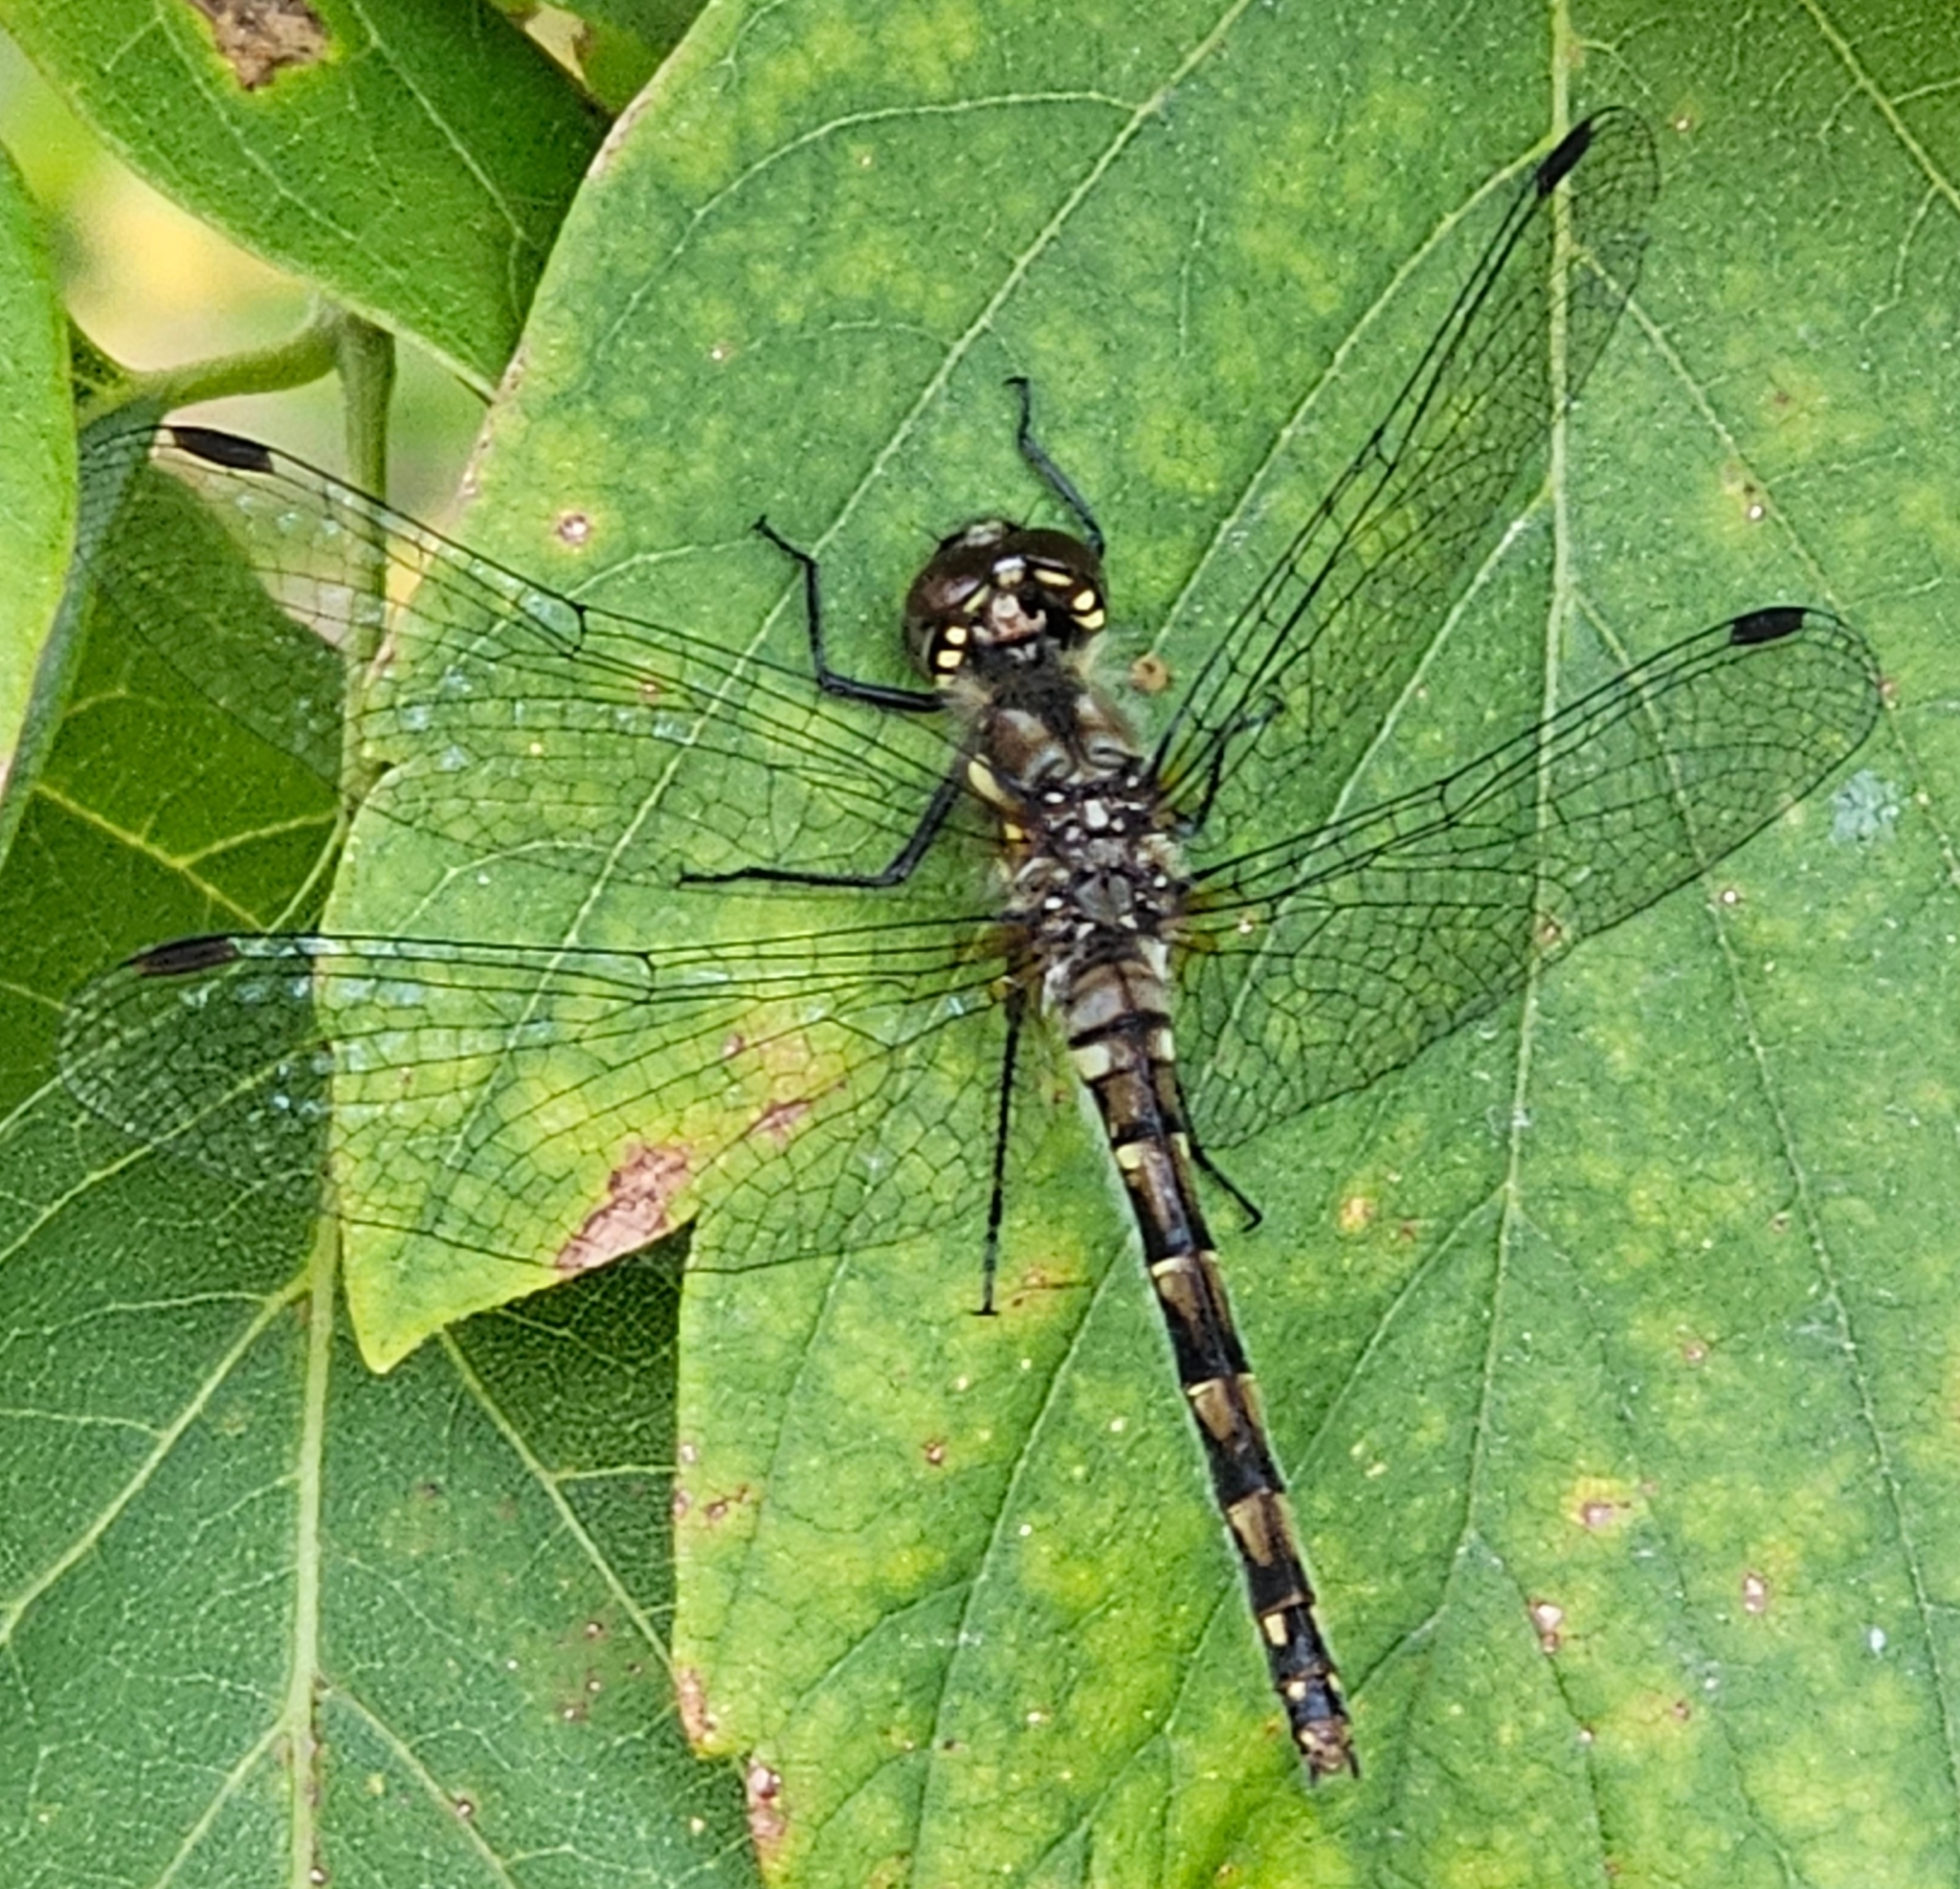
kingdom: Animalia
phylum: Arthropoda
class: Insecta
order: Odonata
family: Libellulidae
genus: Sympetrum
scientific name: Sympetrum danae
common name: Black darter
